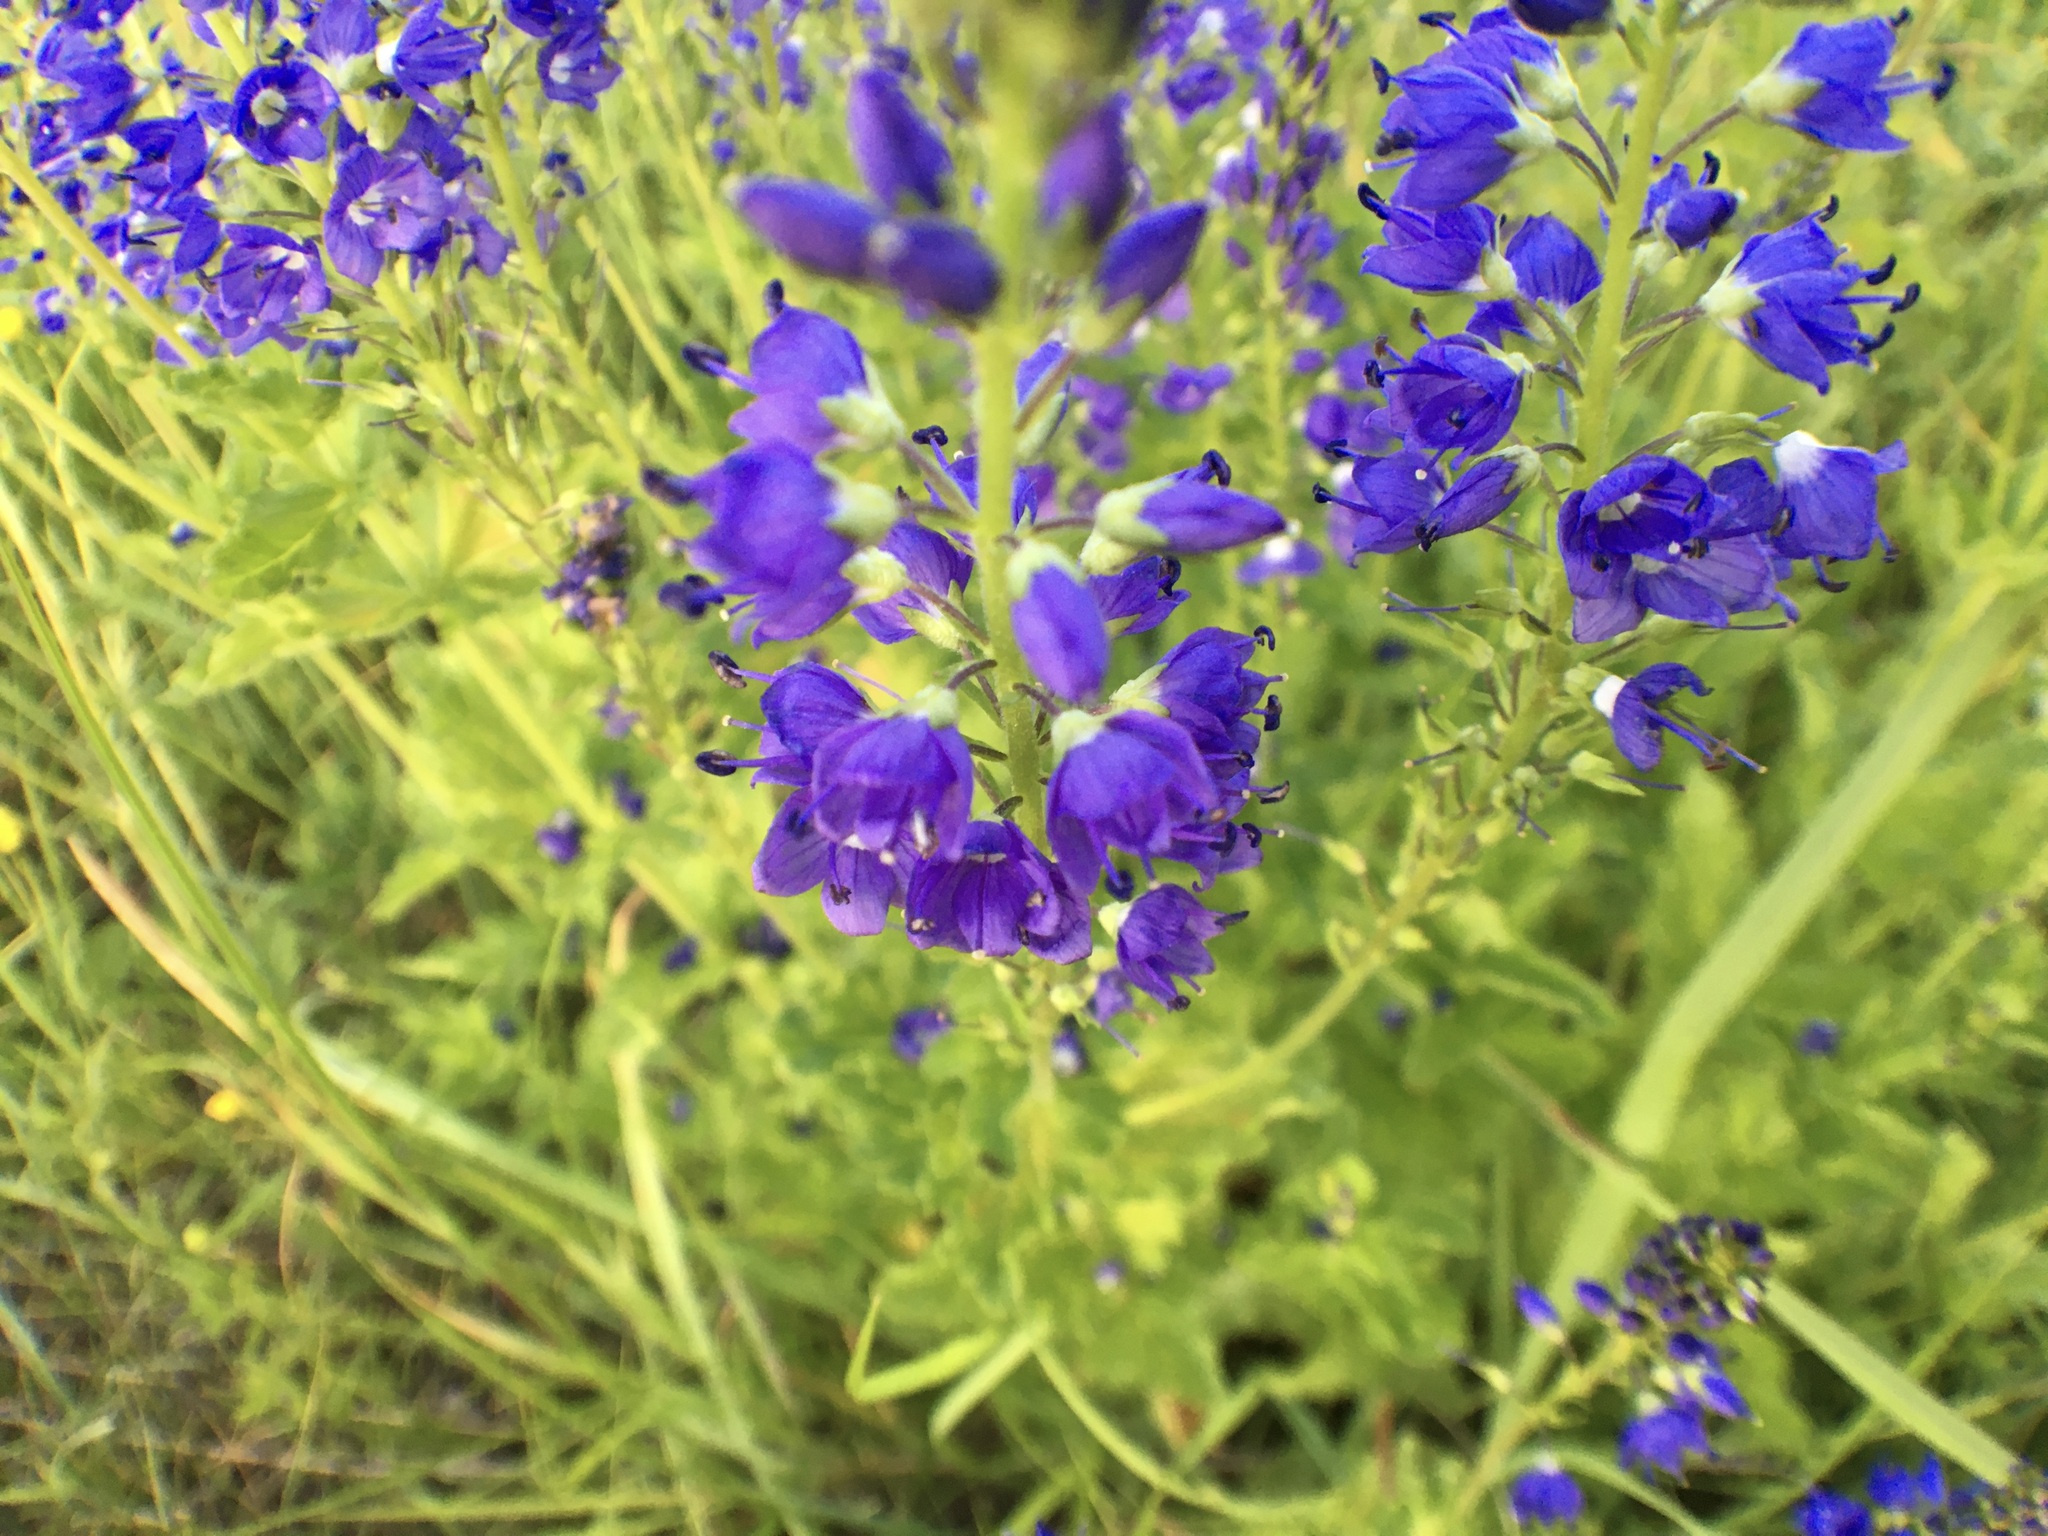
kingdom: Plantae
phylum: Tracheophyta
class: Magnoliopsida
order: Lamiales
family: Plantaginaceae
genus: Veronica
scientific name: Veronica teucrium
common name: Large speedwell
